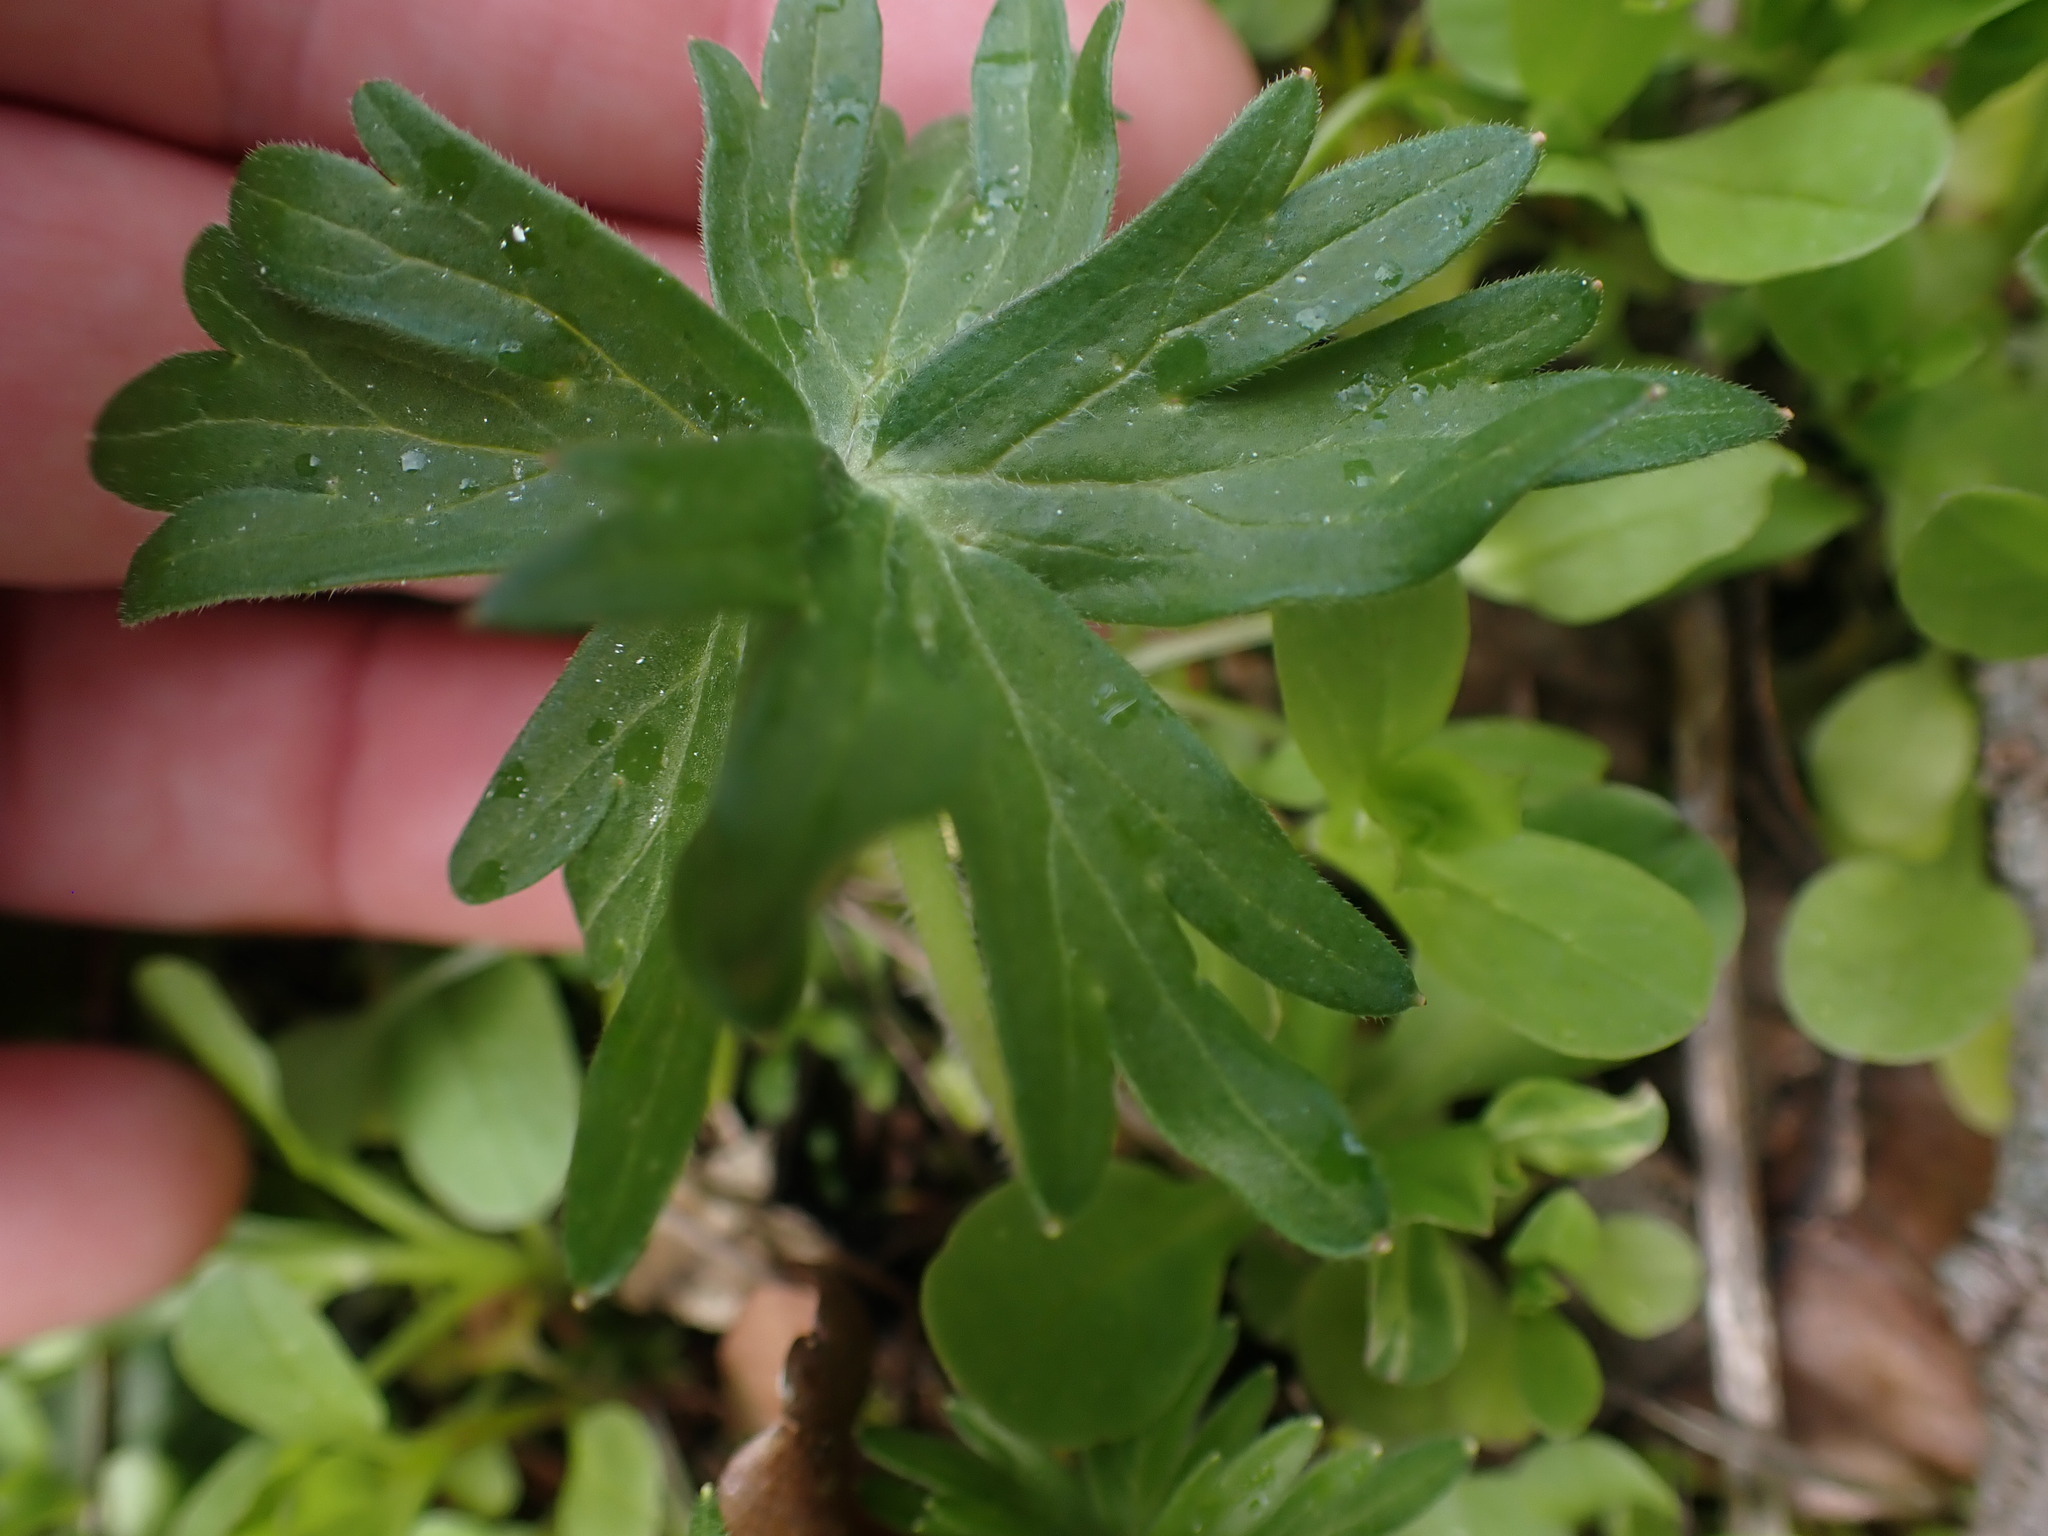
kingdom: Plantae
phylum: Tracheophyta
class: Magnoliopsida
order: Ranunculales
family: Ranunculaceae
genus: Delphinium
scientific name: Delphinium menziesii
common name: Menzies's larkspur
